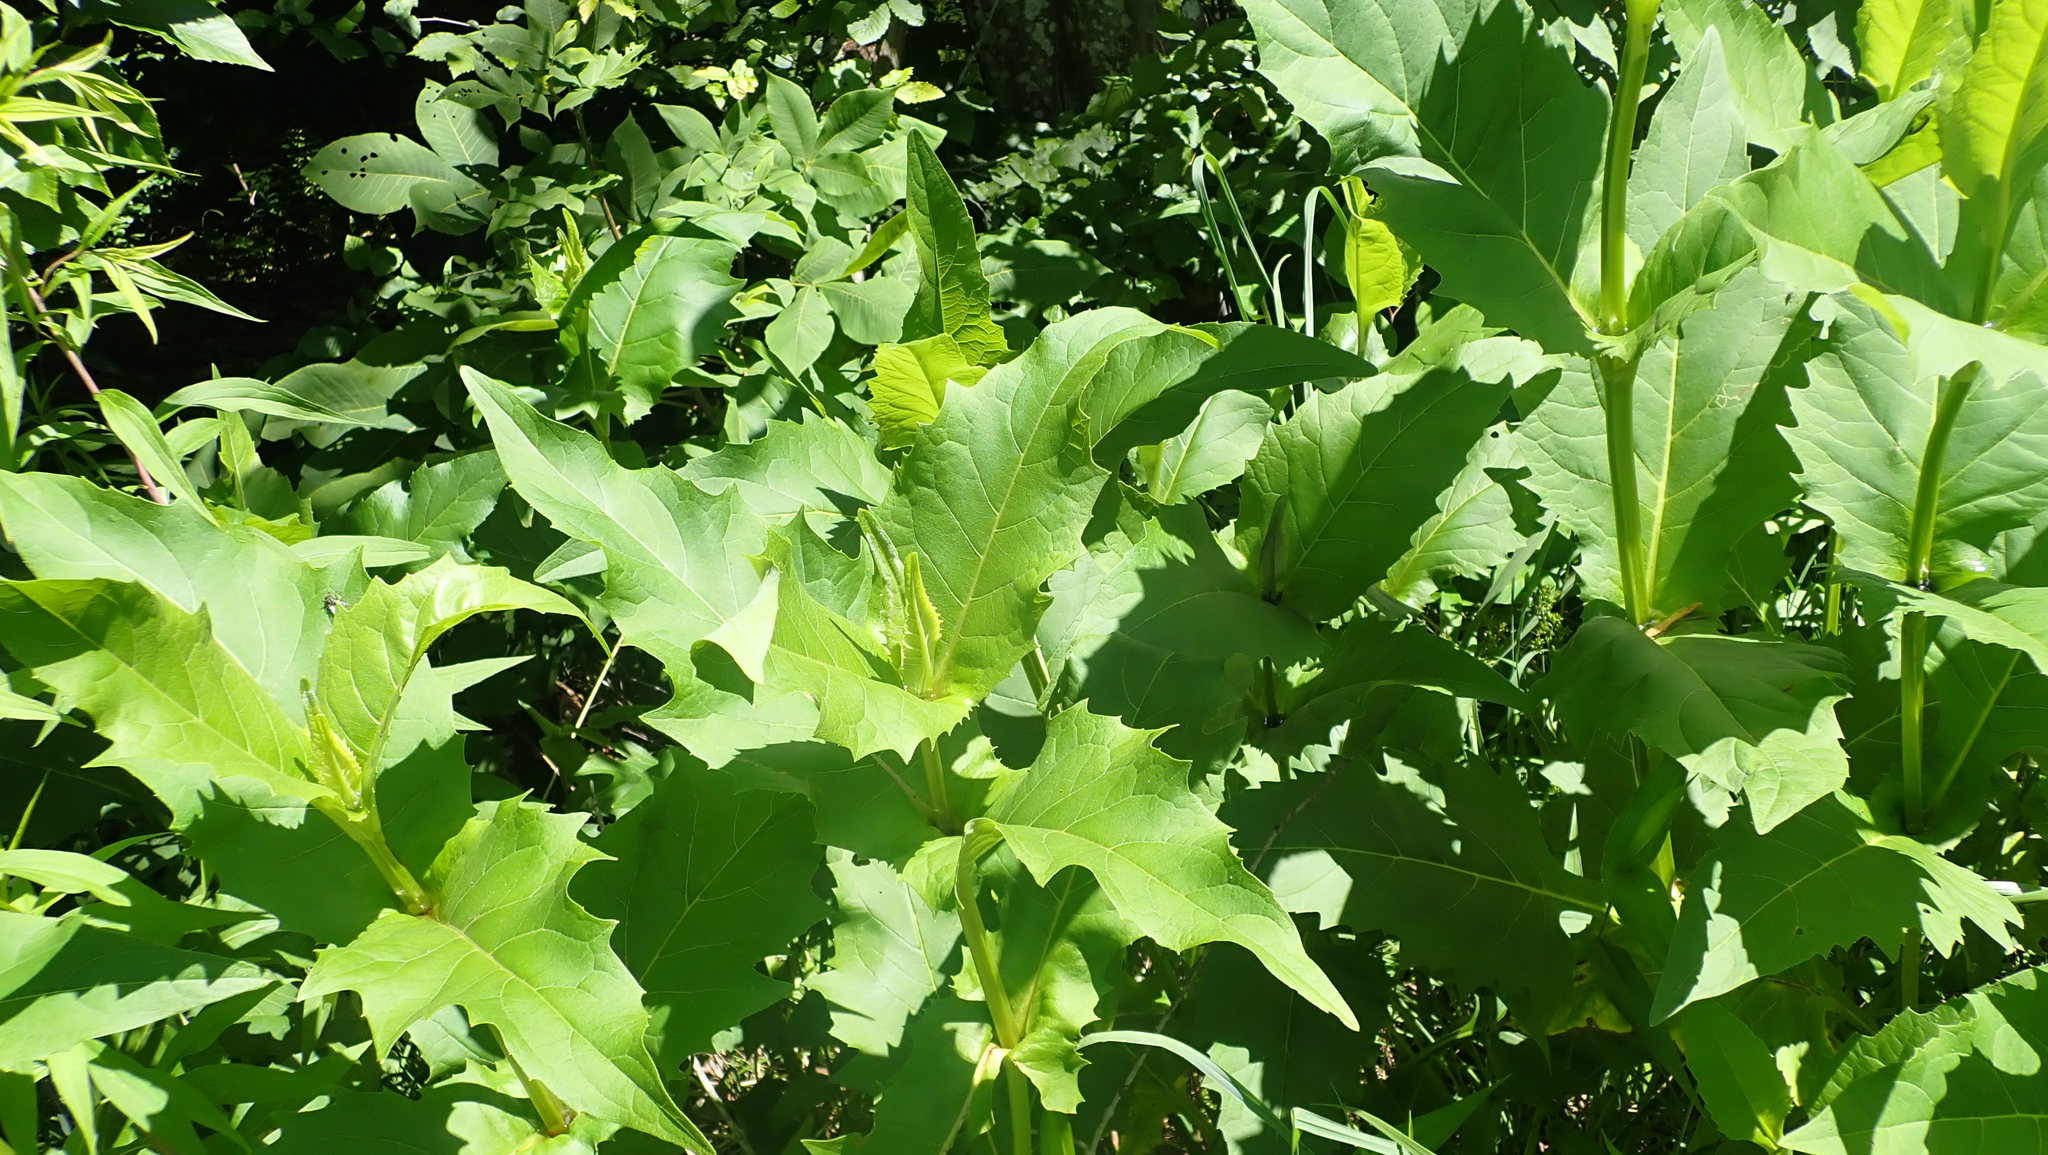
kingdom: Plantae
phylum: Tracheophyta
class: Magnoliopsida
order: Asterales
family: Asteraceae
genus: Silphium
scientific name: Silphium perfoliatum
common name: Cup-plant
